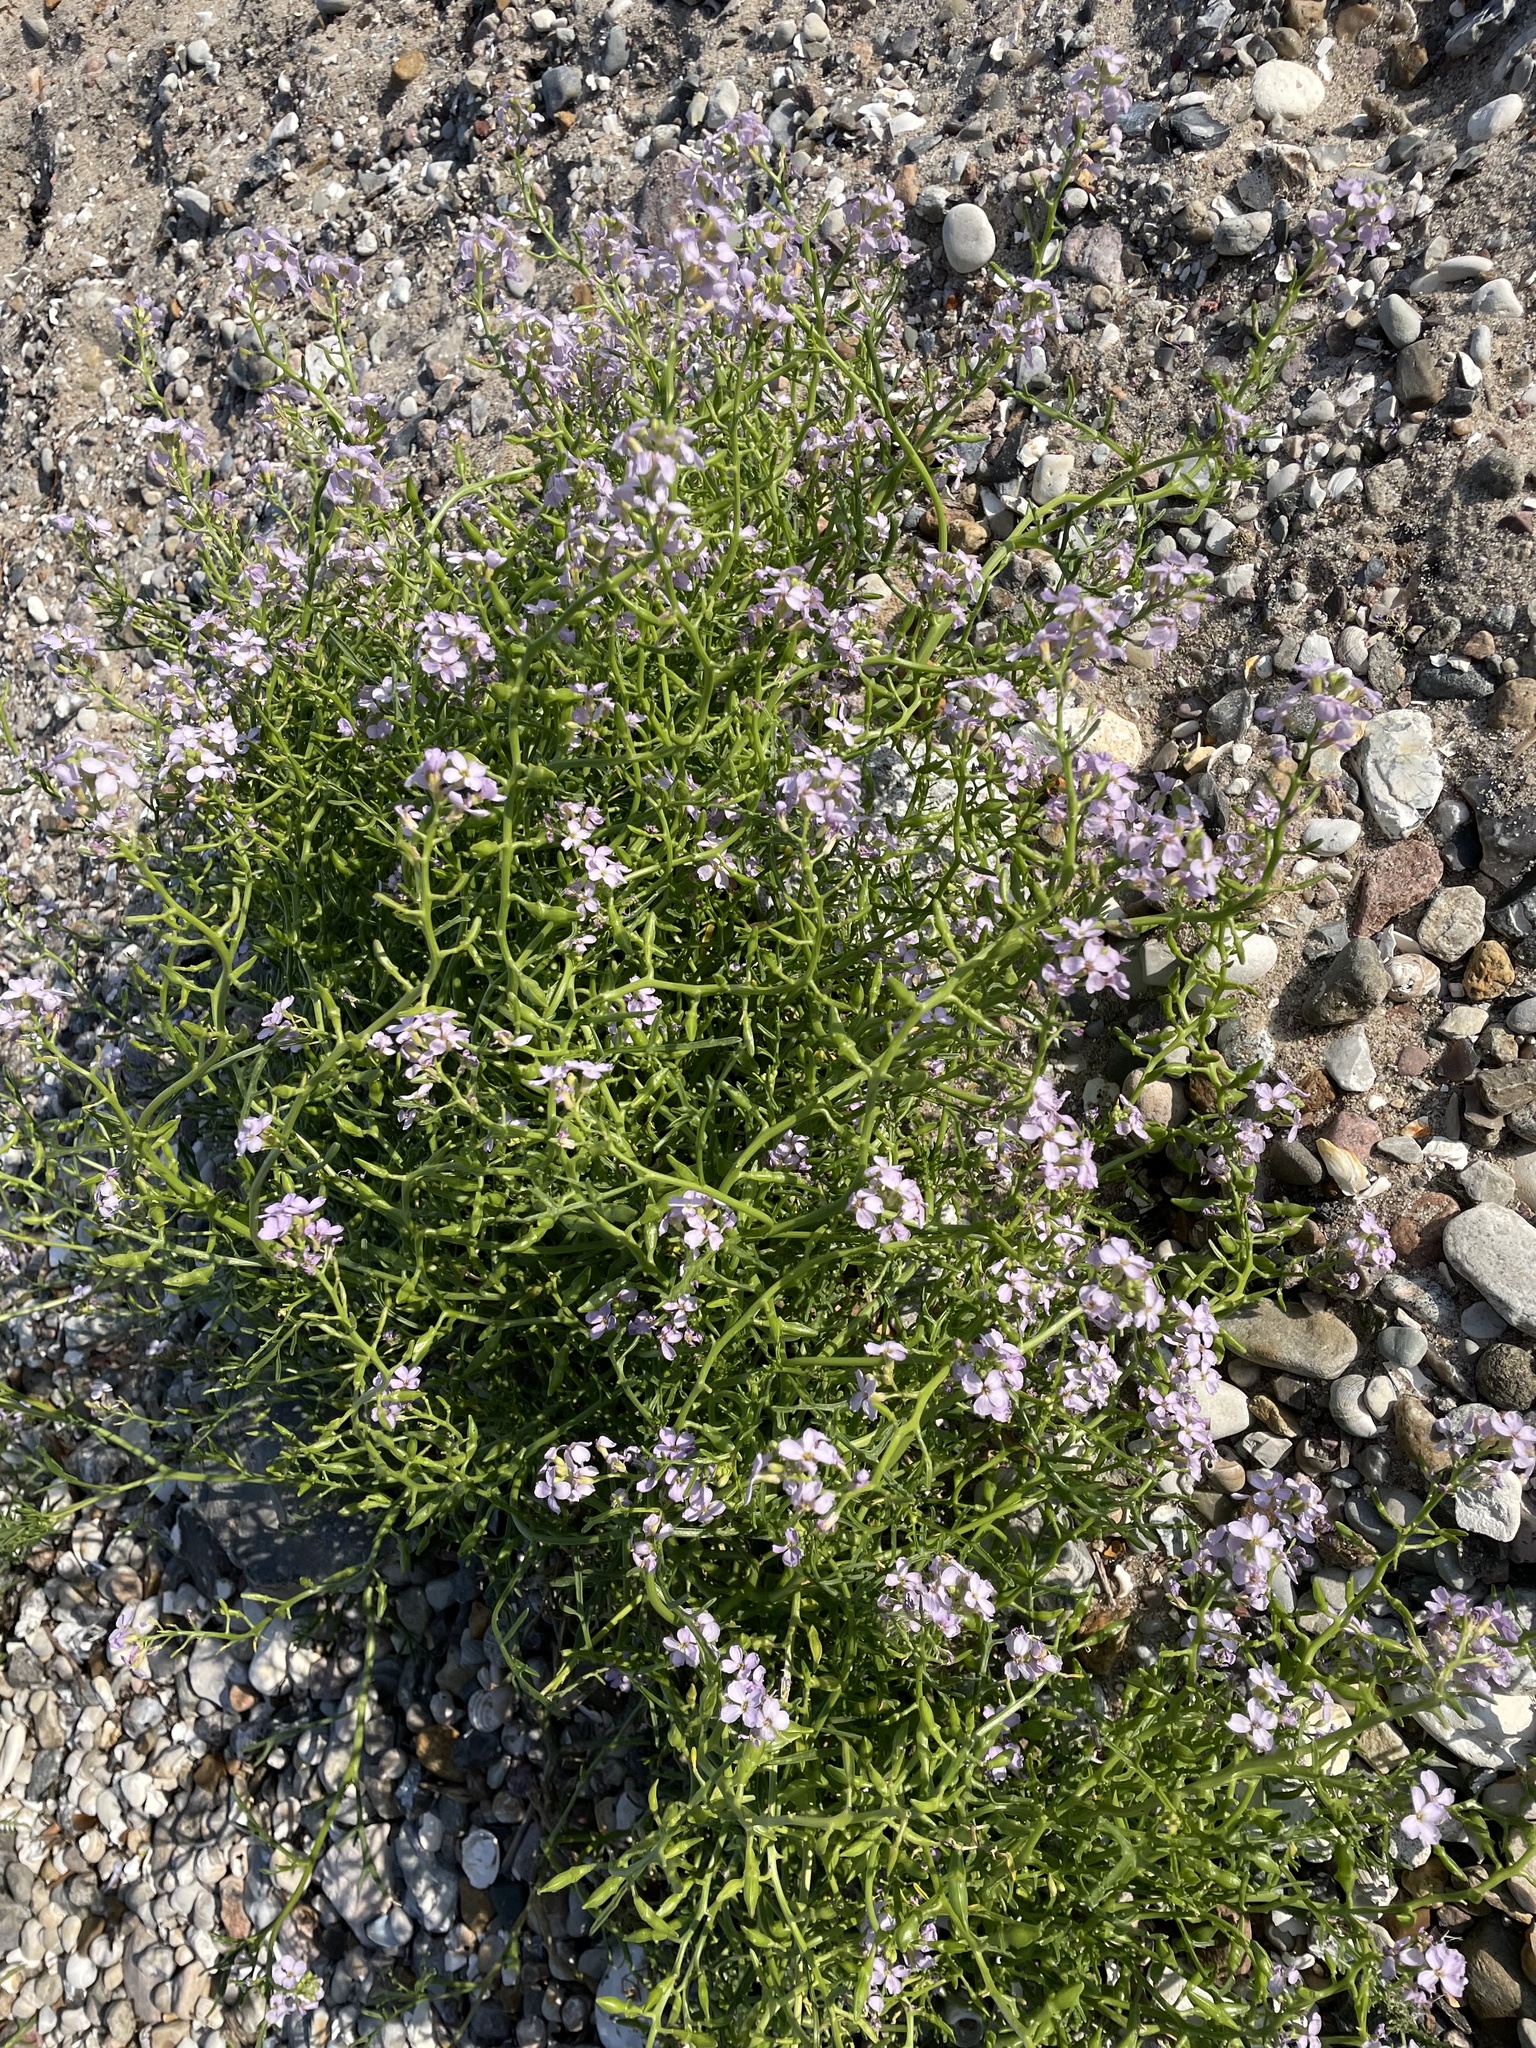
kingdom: Plantae
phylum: Tracheophyta
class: Magnoliopsida
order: Brassicales
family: Brassicaceae
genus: Cakile
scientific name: Cakile maritima
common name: Sea rocket
